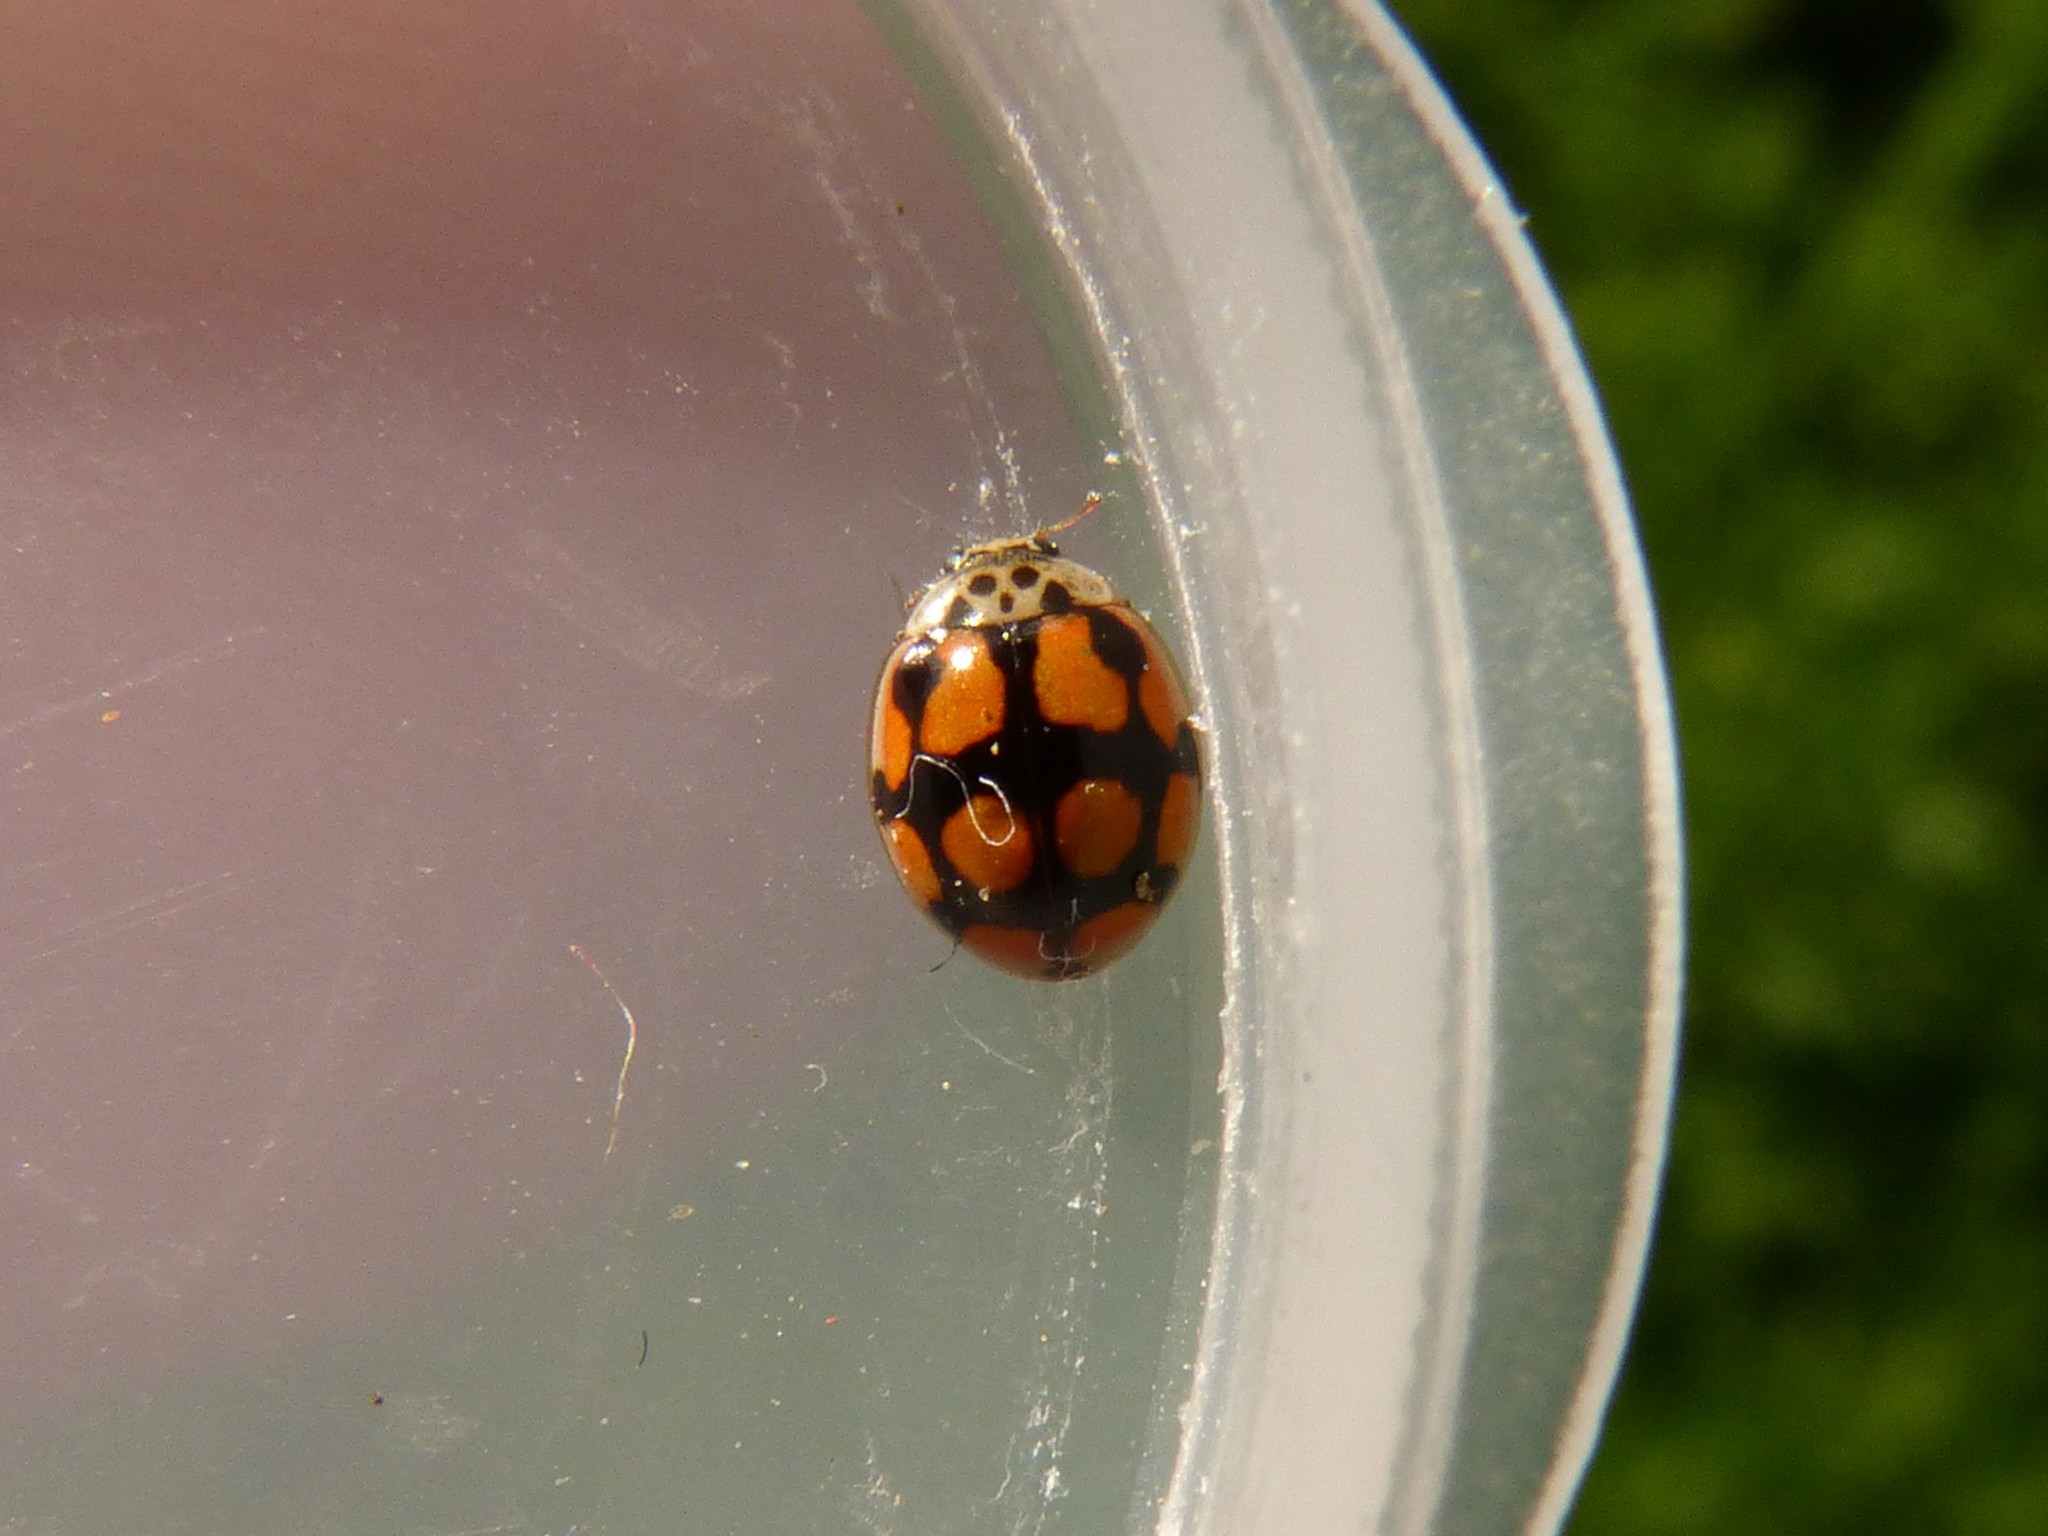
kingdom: Animalia
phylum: Arthropoda
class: Insecta
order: Coleoptera
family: Coccinellidae
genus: Adalia
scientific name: Adalia decempunctata
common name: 10-spot ladybird
